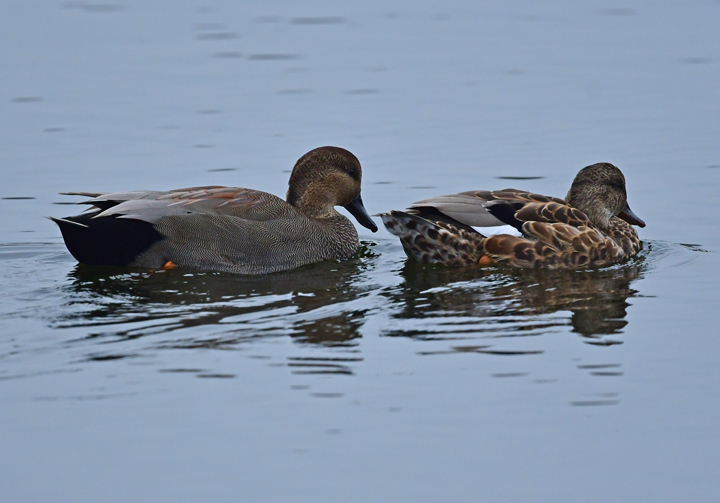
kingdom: Animalia
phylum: Chordata
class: Aves
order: Anseriformes
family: Anatidae
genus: Mareca
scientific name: Mareca strepera
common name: Gadwall
